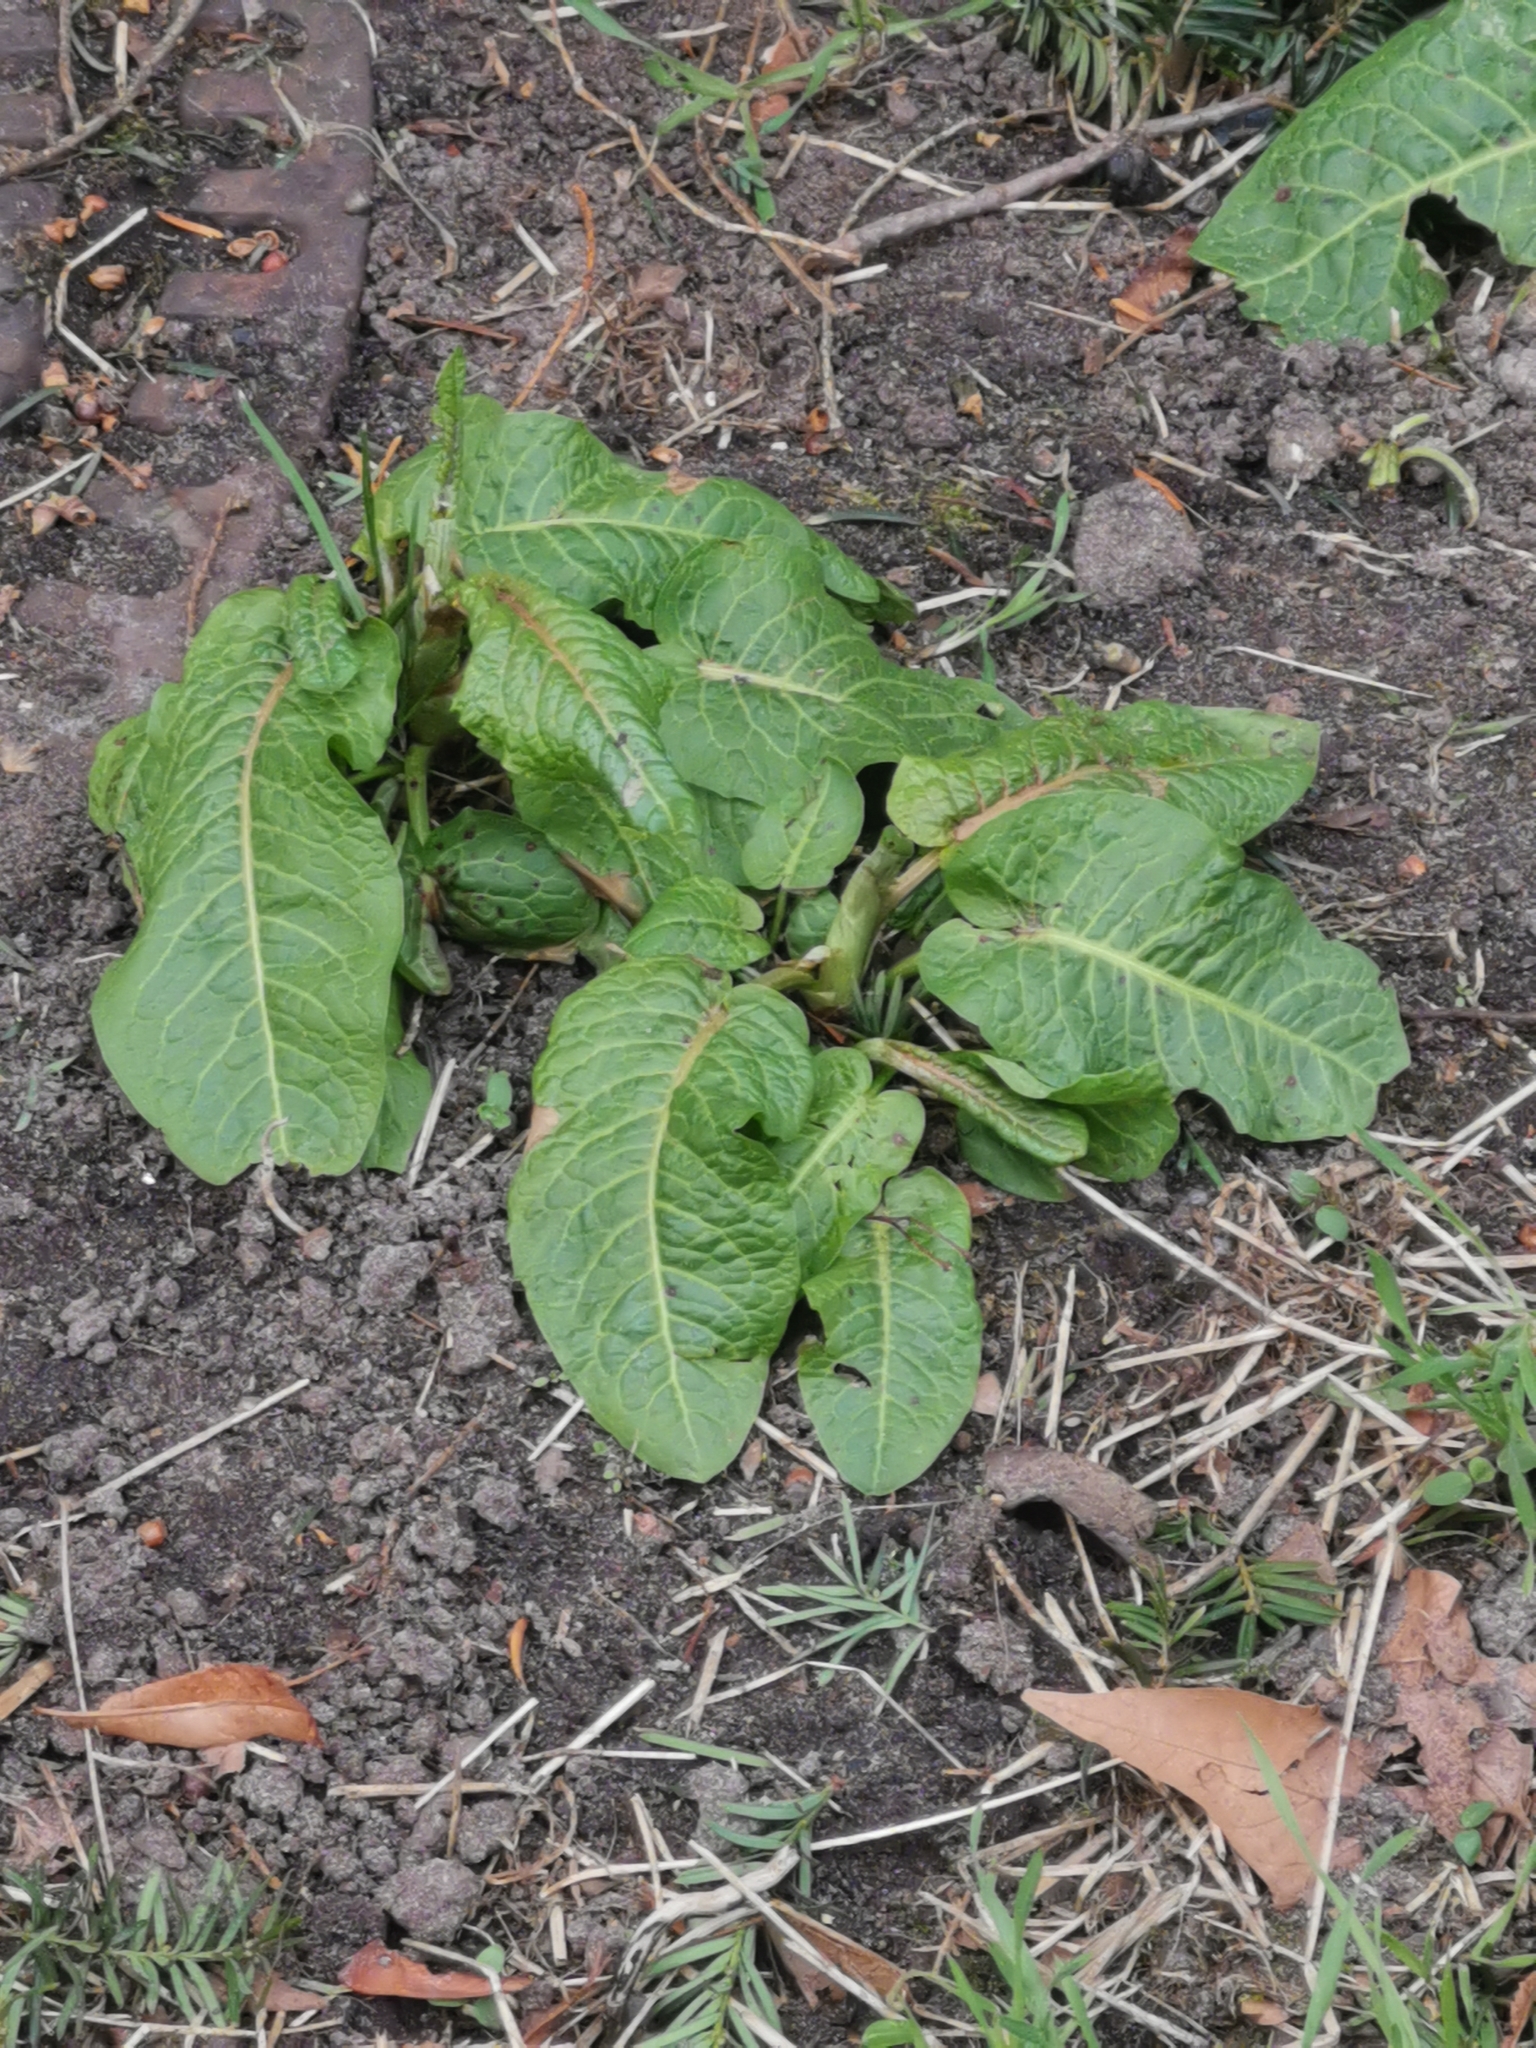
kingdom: Plantae
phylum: Tracheophyta
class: Magnoliopsida
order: Caryophyllales
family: Polygonaceae
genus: Rumex
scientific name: Rumex obtusifolius
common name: Bitter dock
